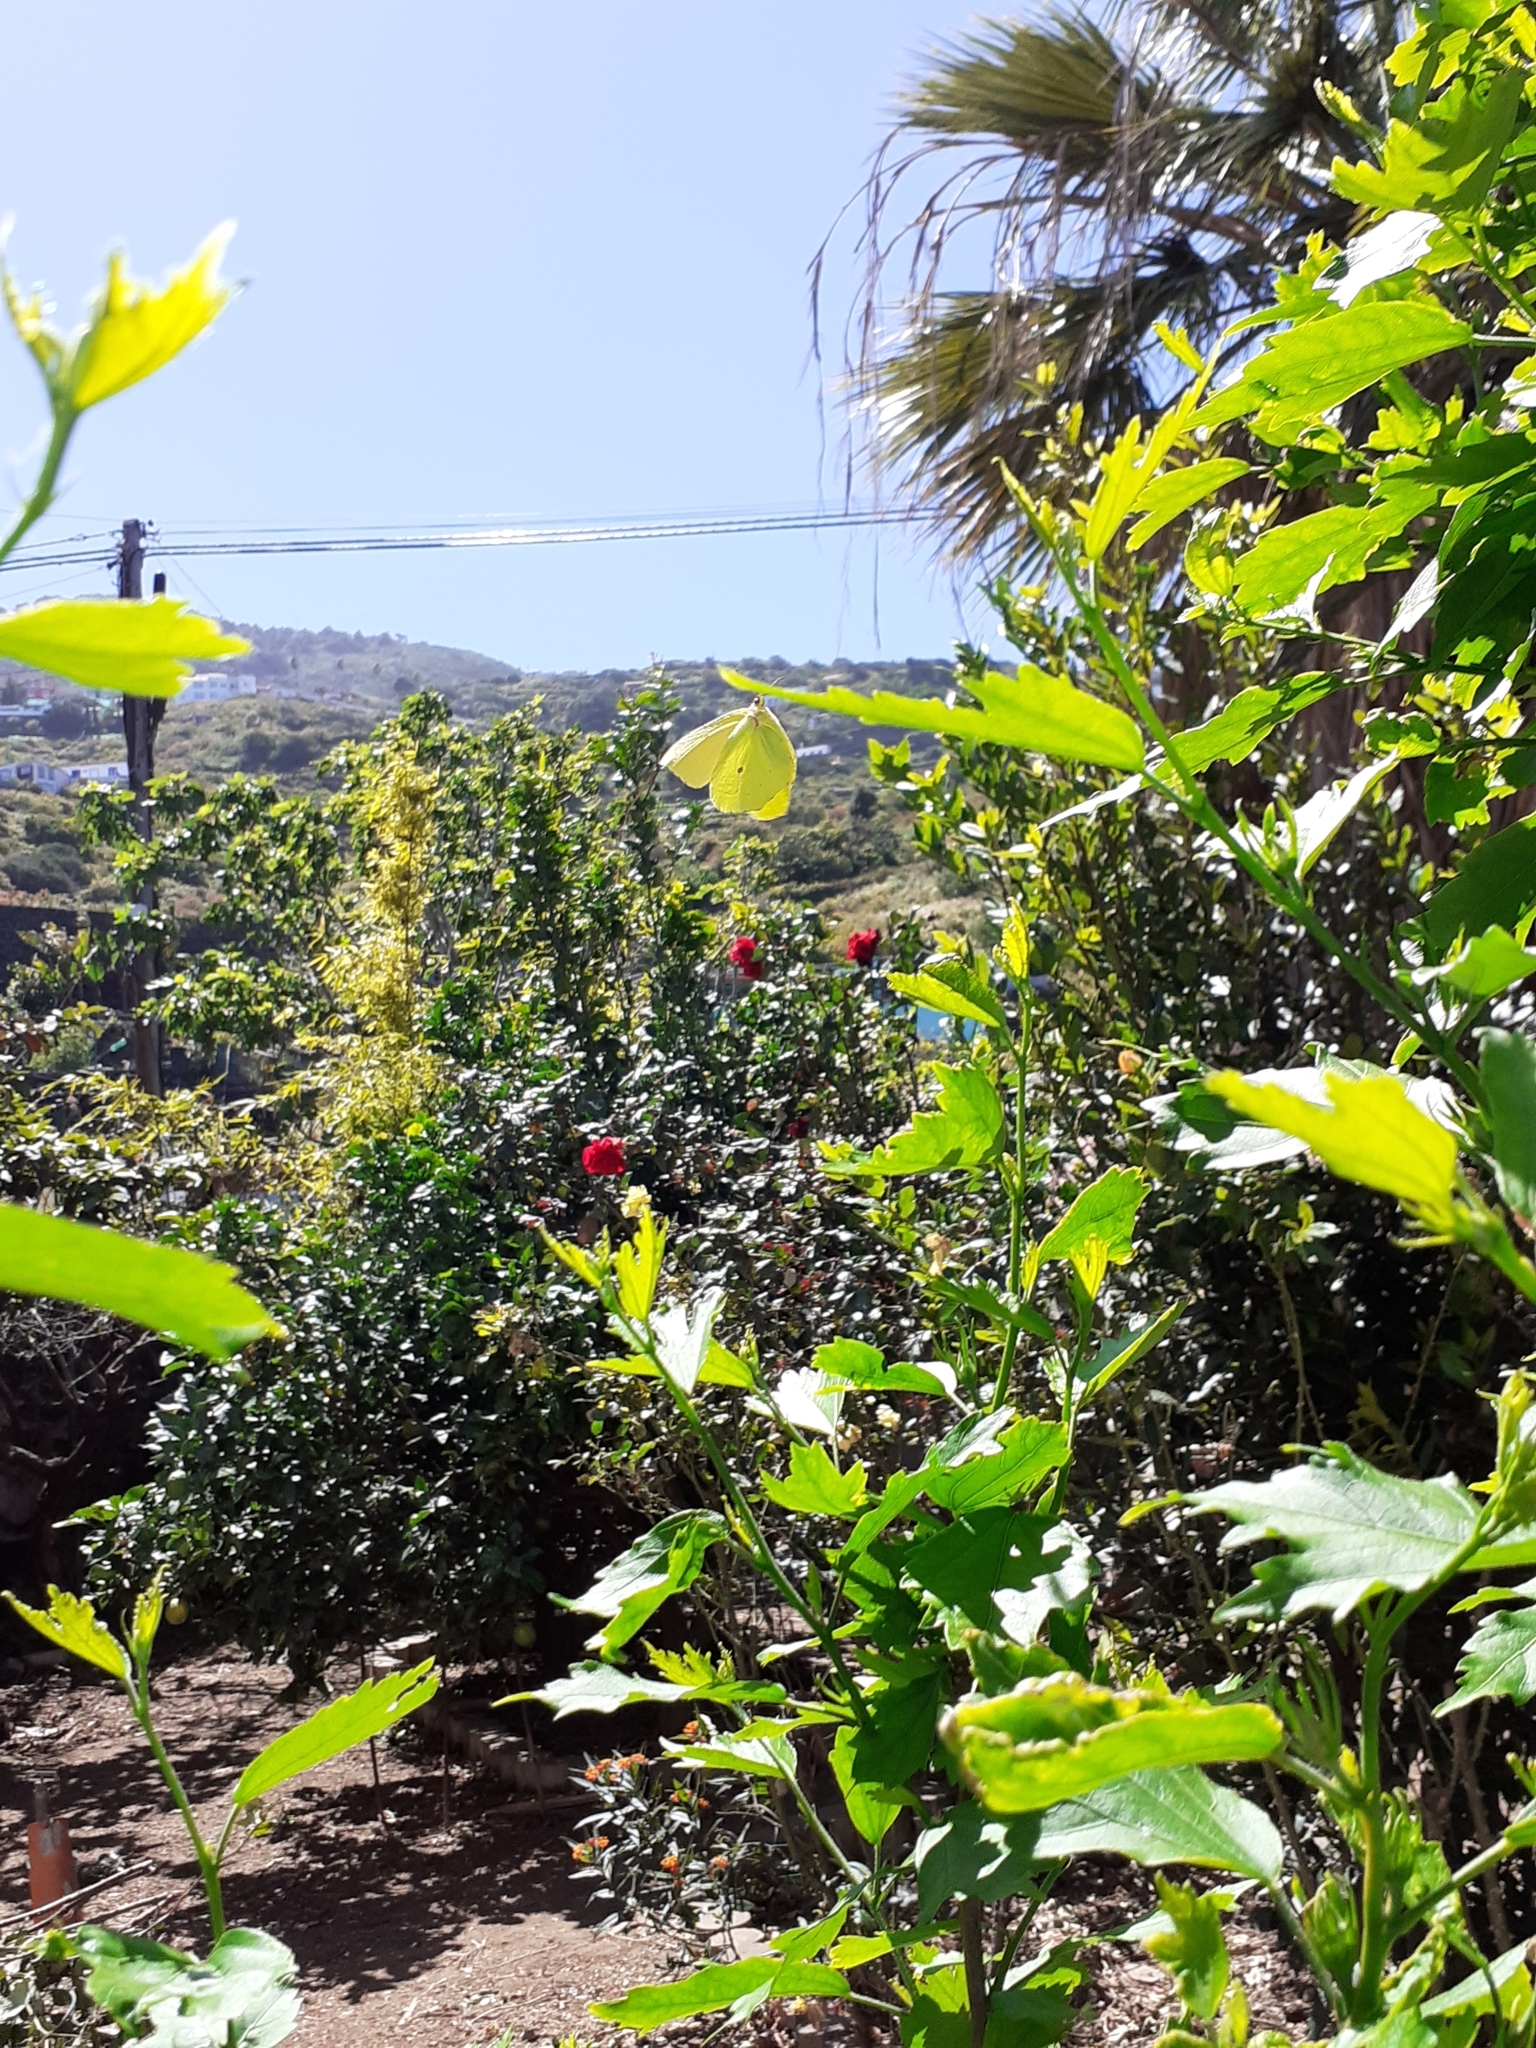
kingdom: Animalia
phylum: Arthropoda
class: Insecta
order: Lepidoptera
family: Pieridae
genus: Gonepteryx
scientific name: Gonepteryx cleobule
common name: Canary brimstone
